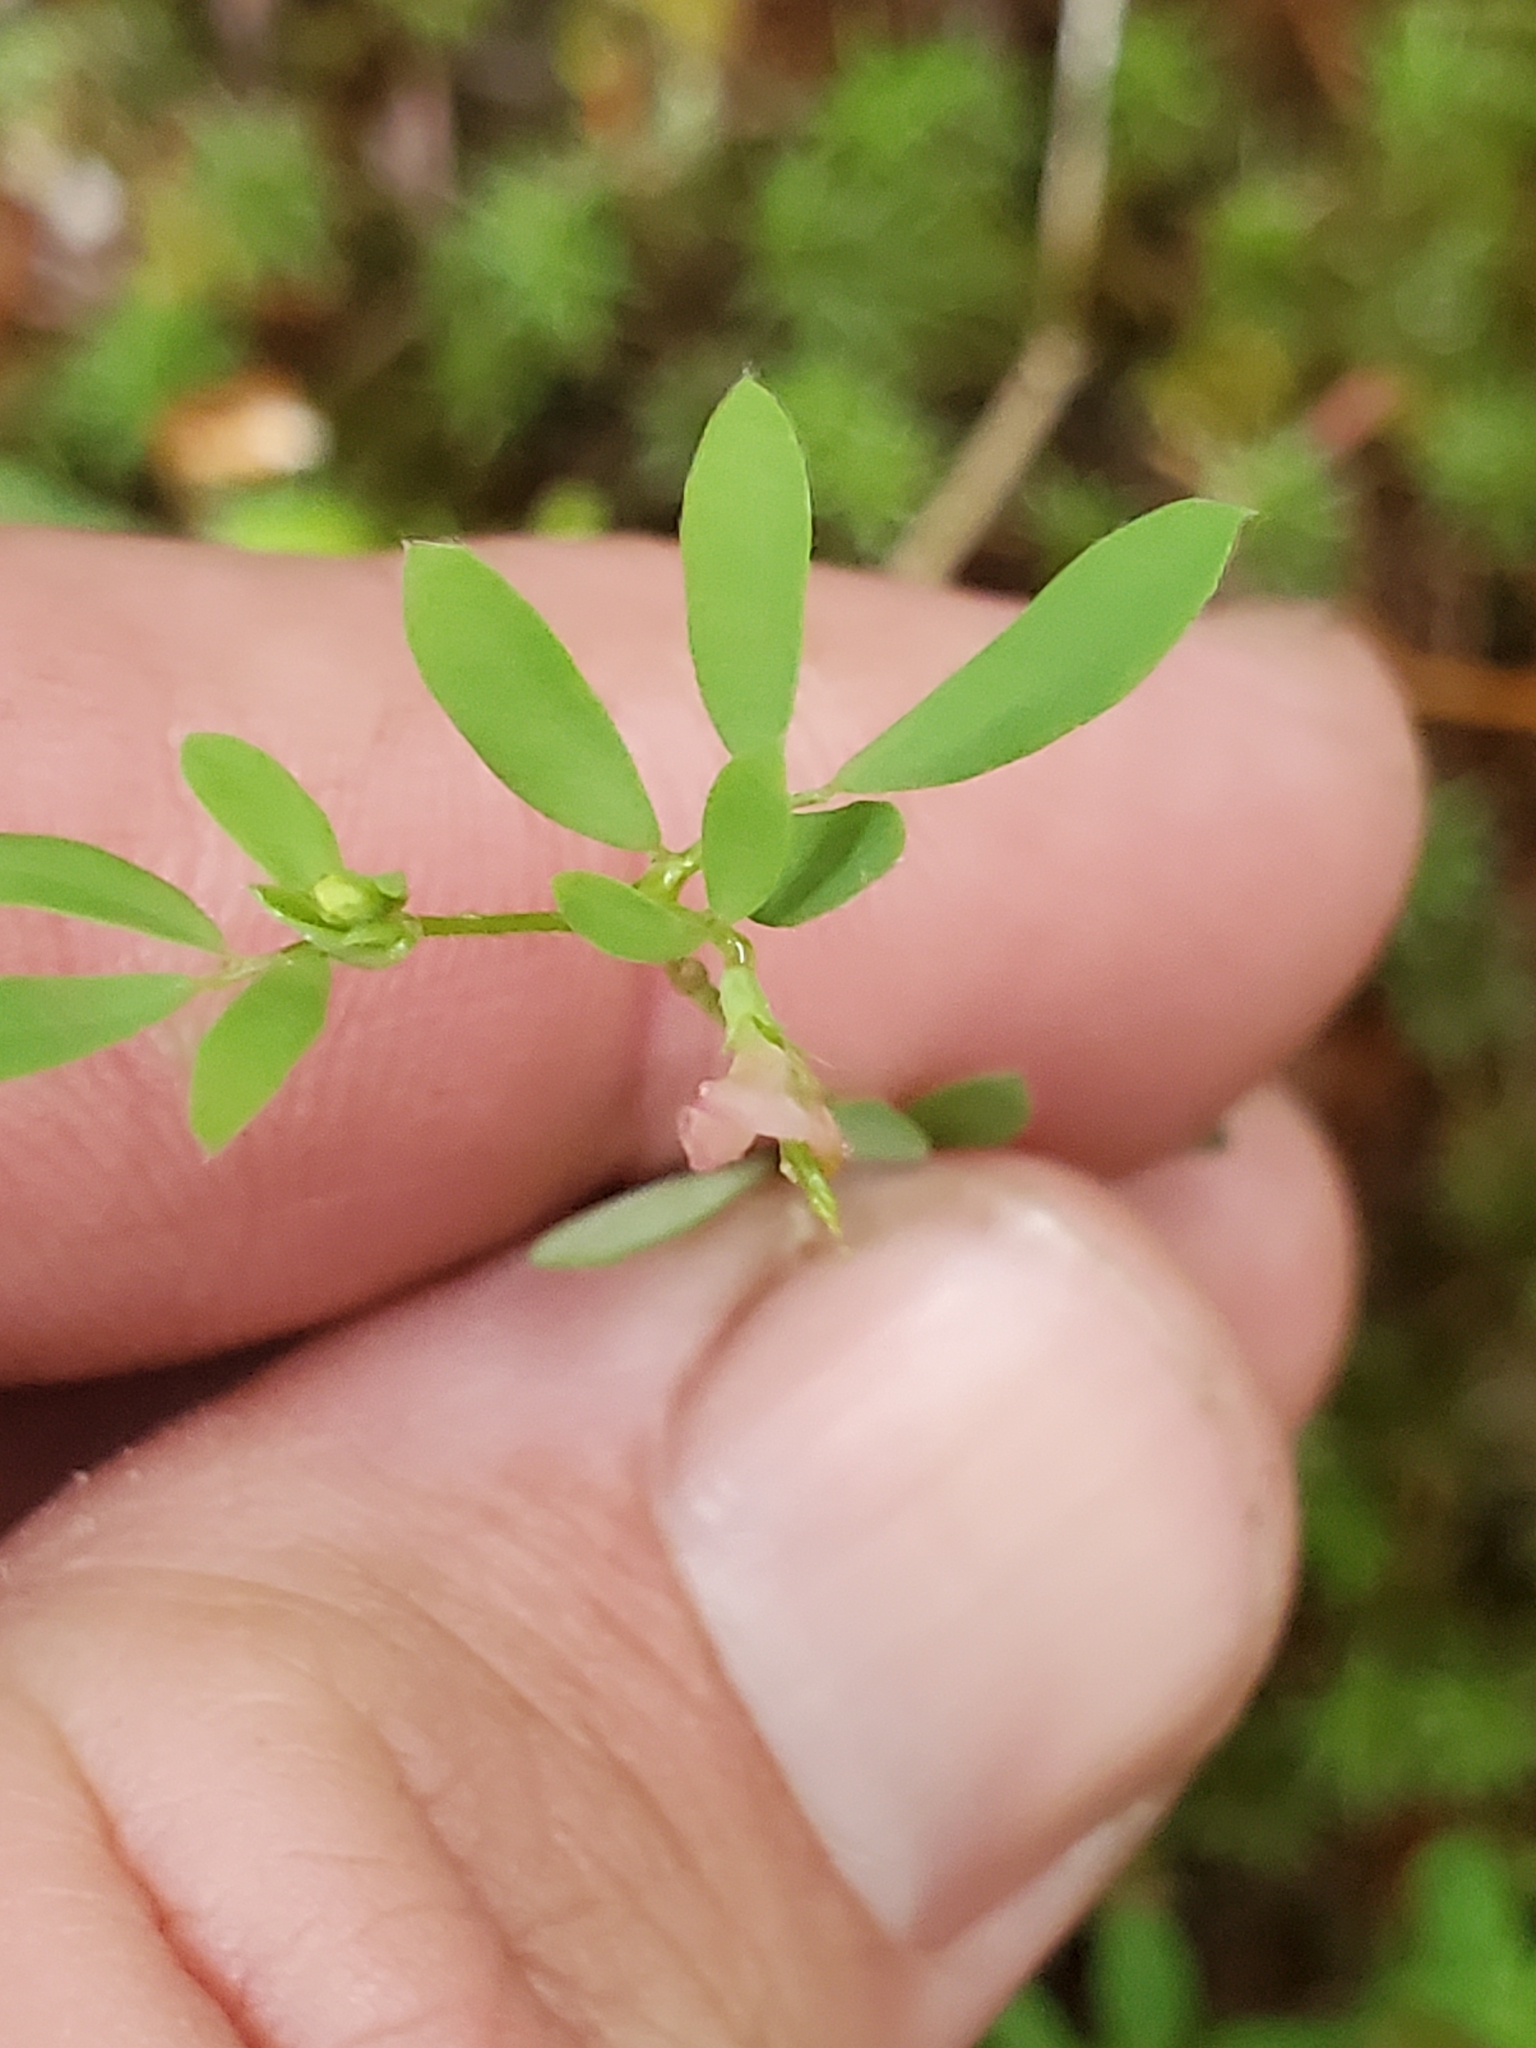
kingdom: Plantae
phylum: Tracheophyta
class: Magnoliopsida
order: Fabales
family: Fabaceae
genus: Acmispon
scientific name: Acmispon parviflorus
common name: Desert deer-vetch
